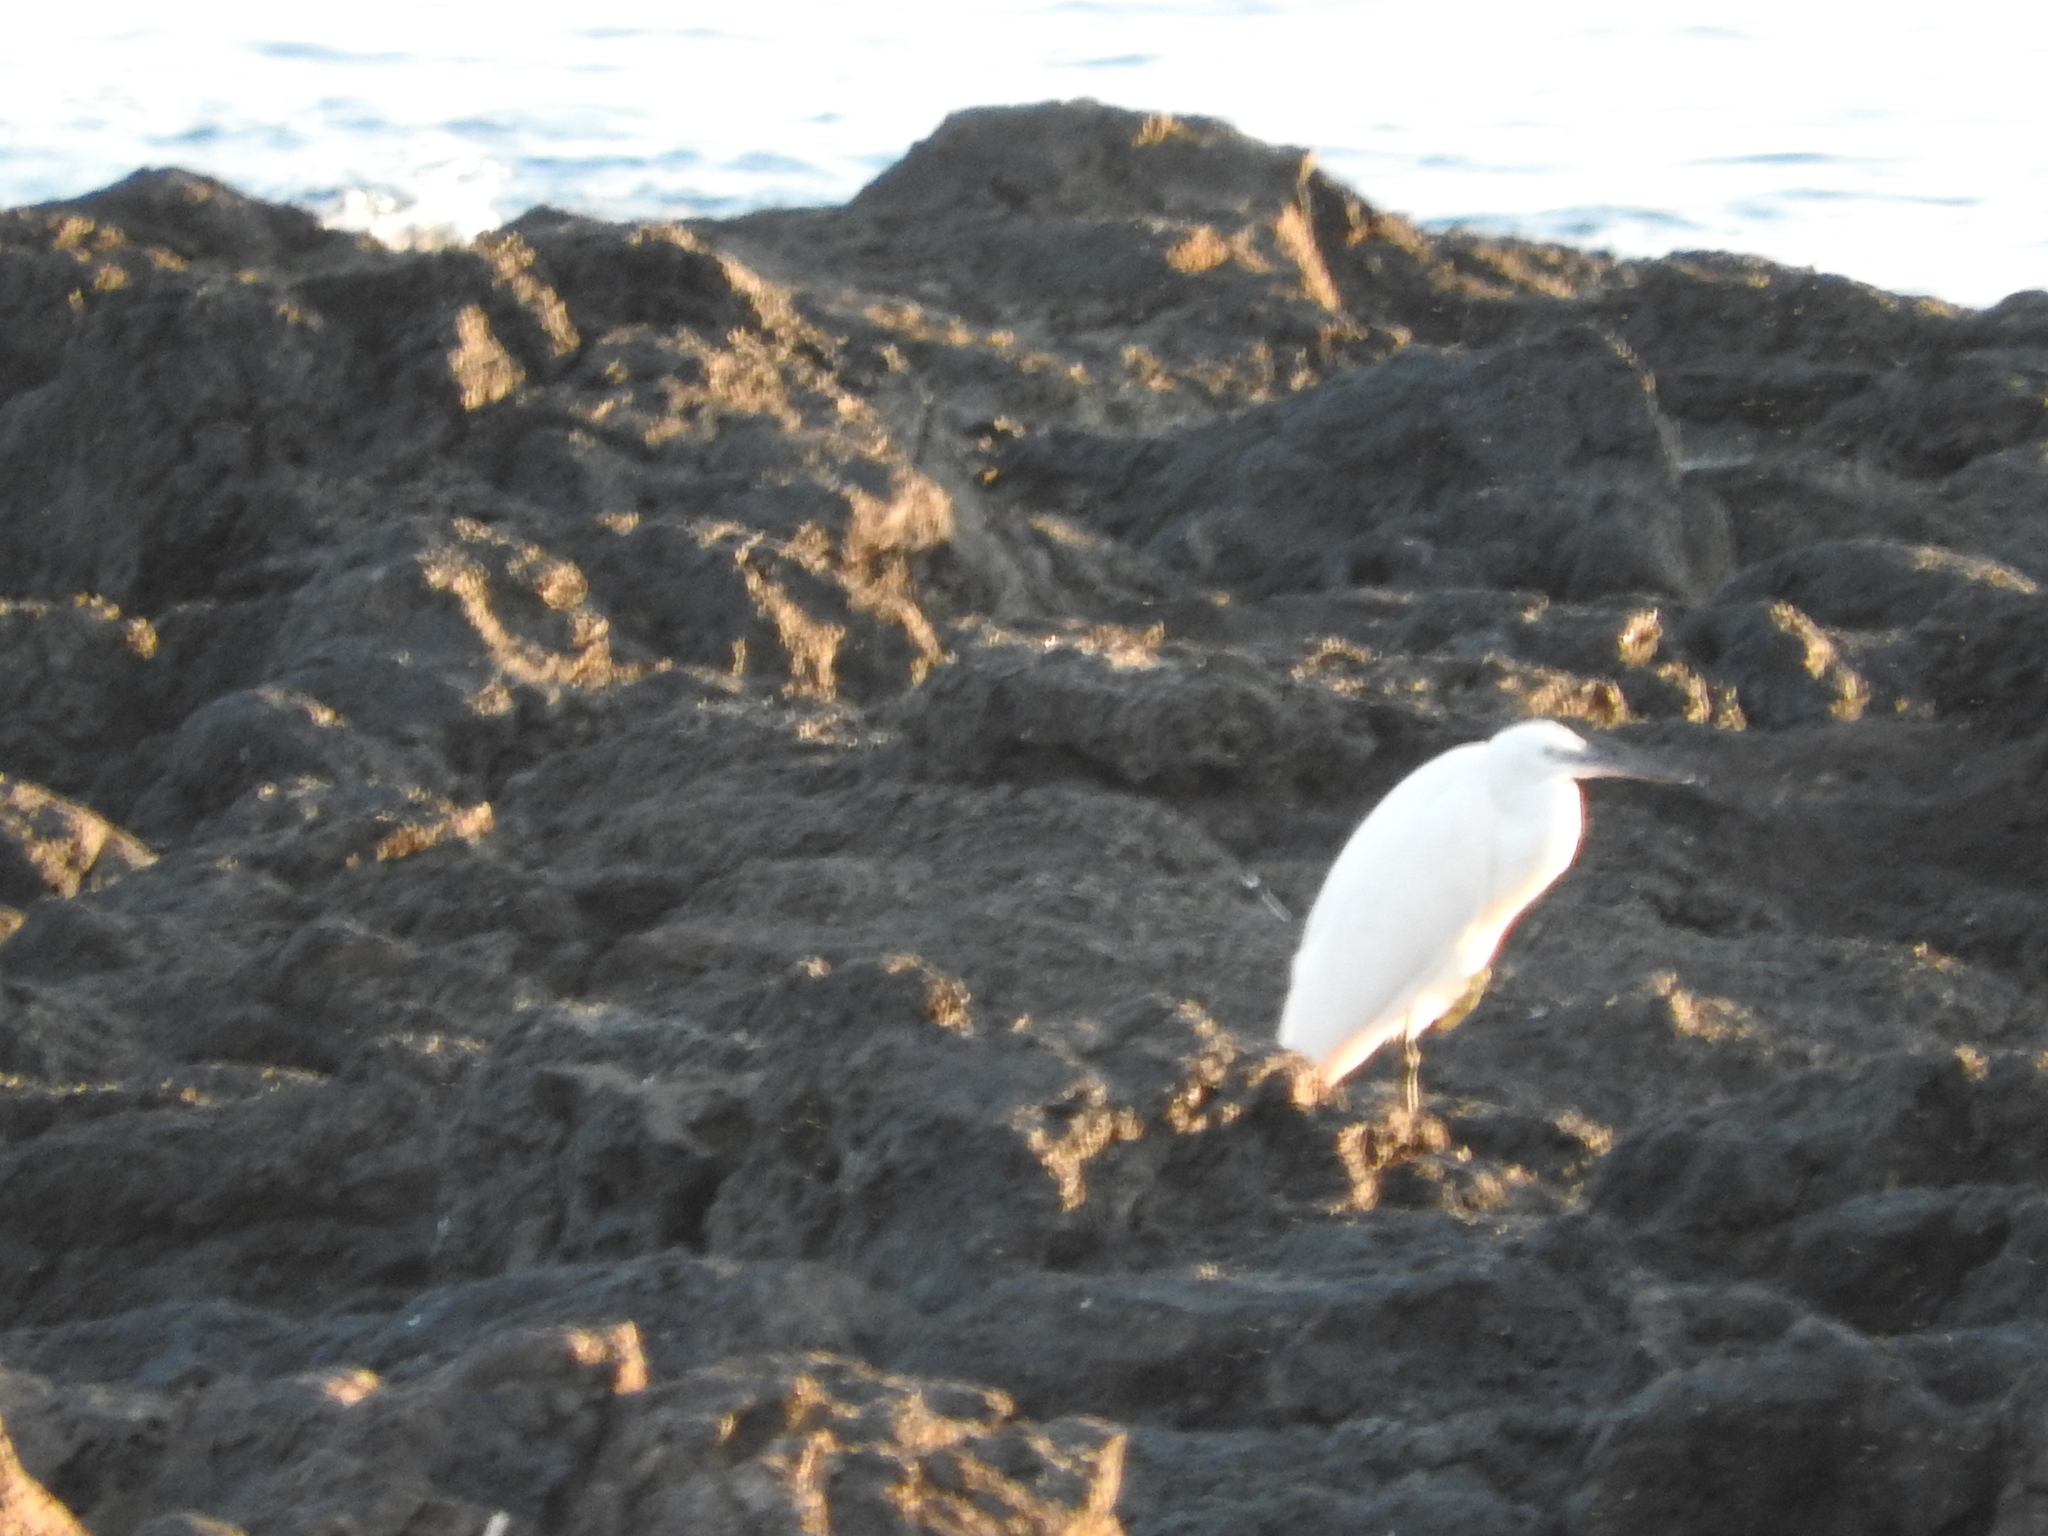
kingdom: Animalia
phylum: Chordata
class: Aves
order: Pelecaniformes
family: Ardeidae
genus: Egretta
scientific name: Egretta garzetta
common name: Little egret
